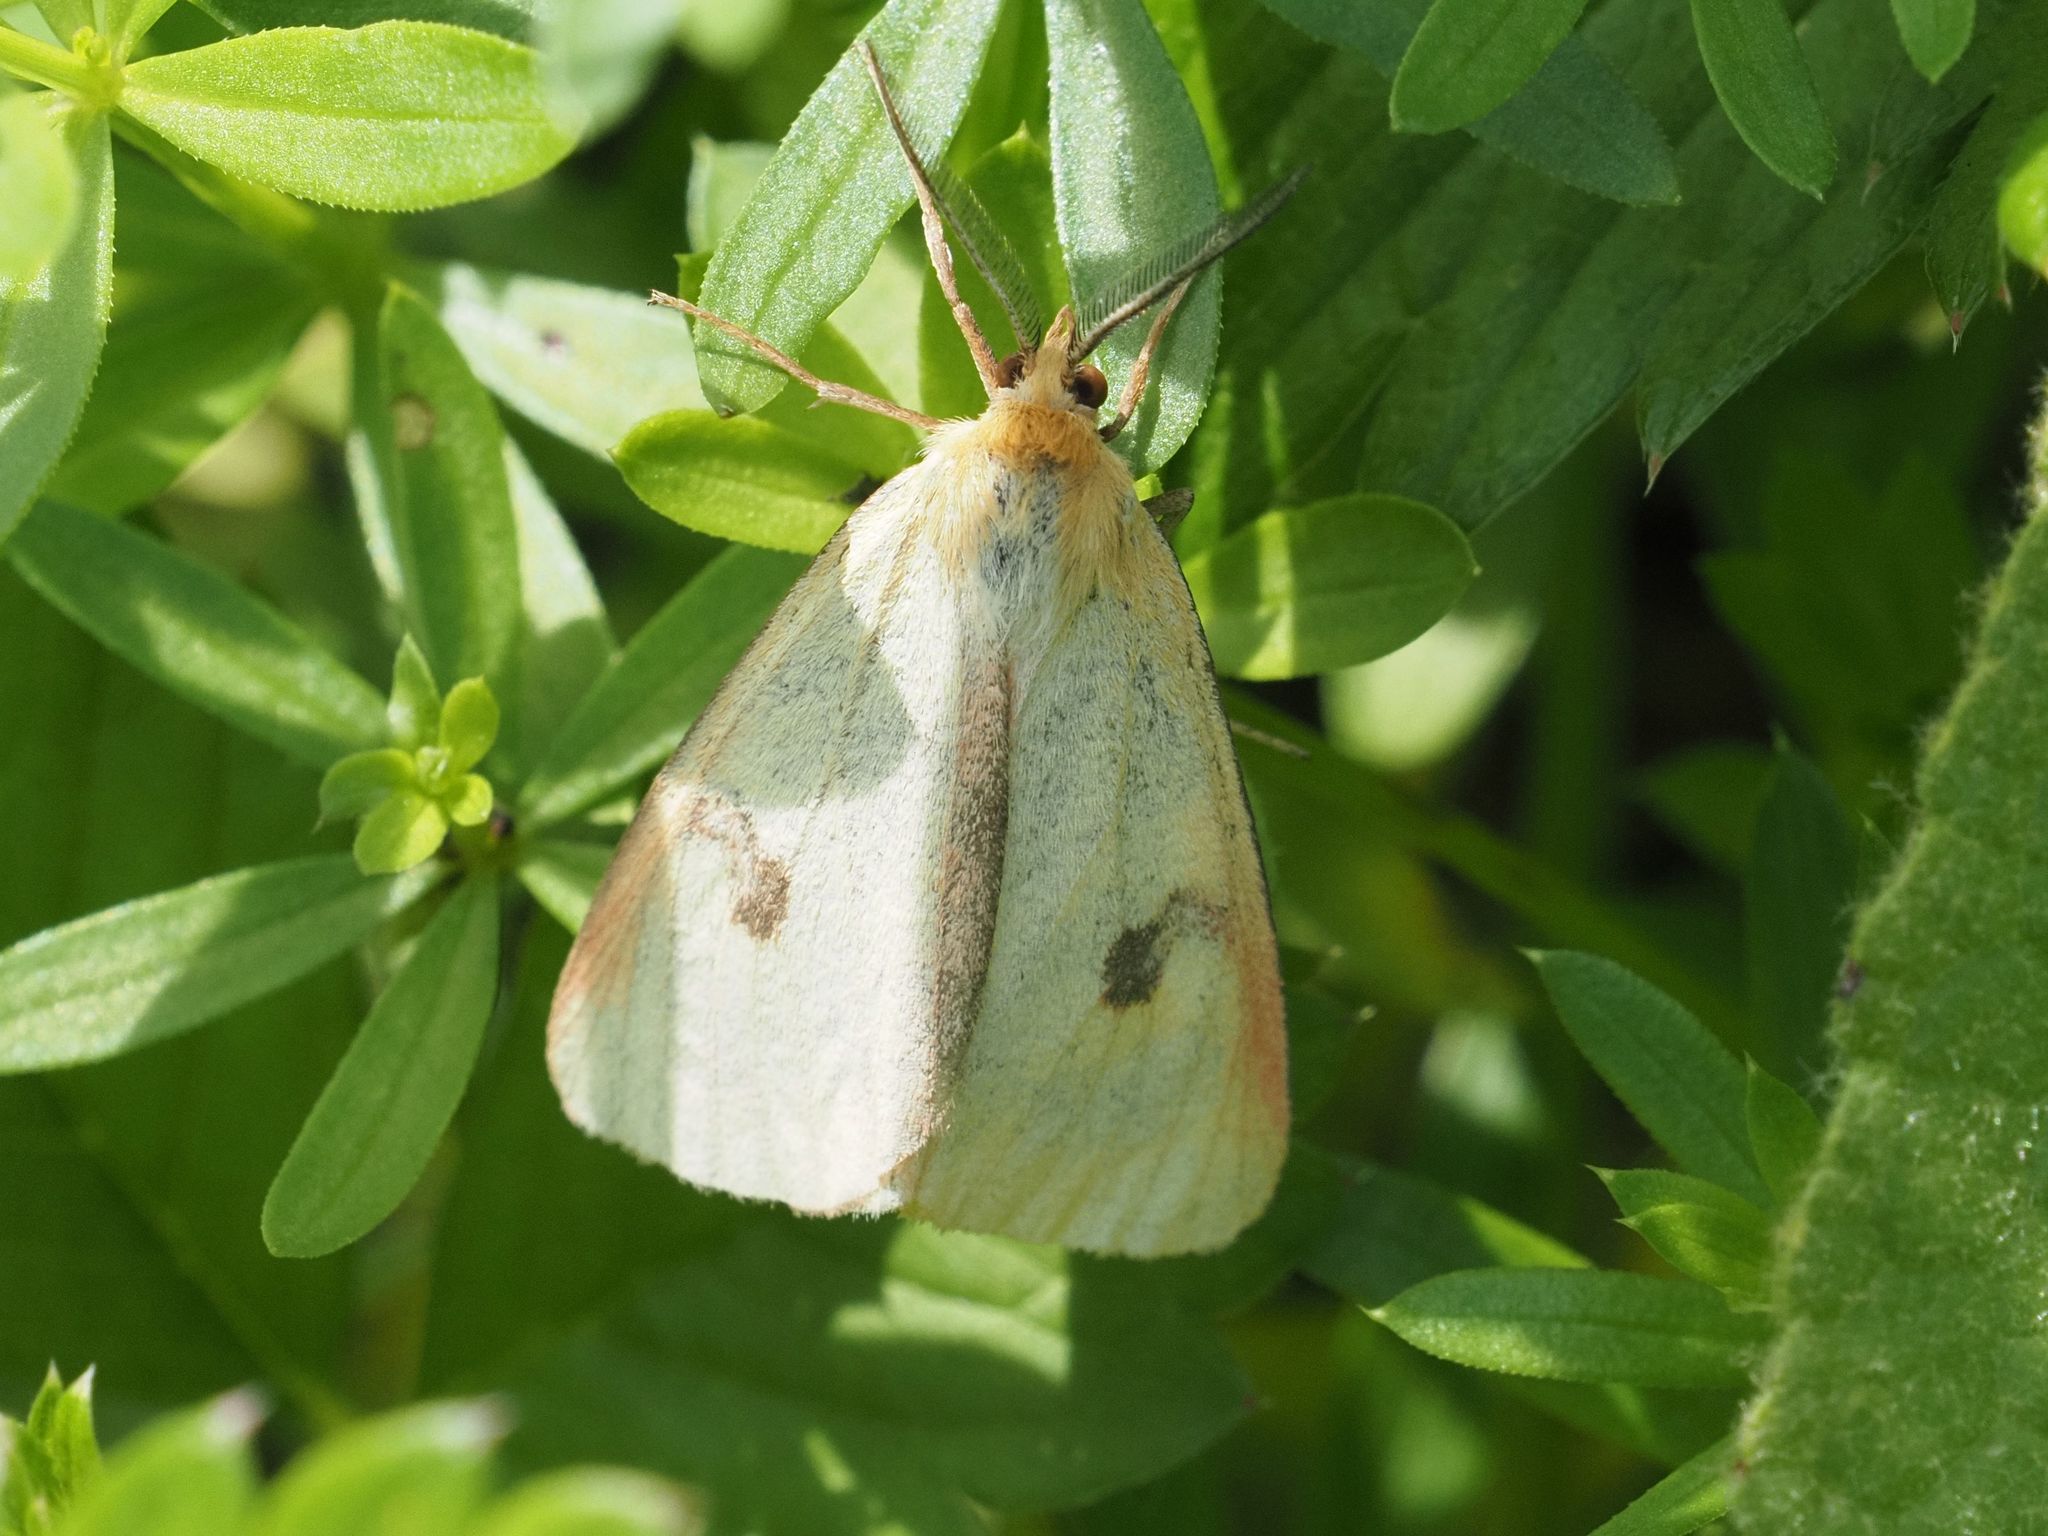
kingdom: Animalia
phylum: Arthropoda
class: Insecta
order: Lepidoptera
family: Erebidae
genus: Diacrisia
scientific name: Diacrisia sannio
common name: Clouded buff
